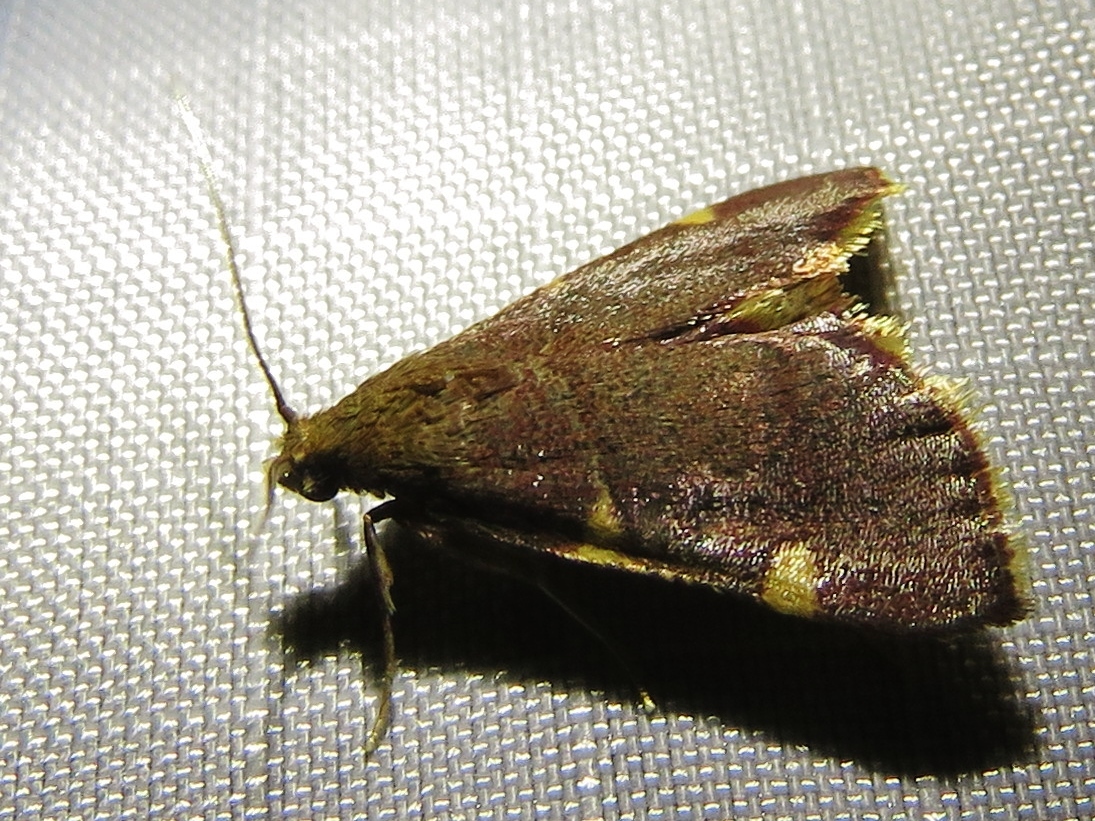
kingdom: Animalia
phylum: Arthropoda
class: Insecta
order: Lepidoptera
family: Pyralidae
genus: Hypsopygia
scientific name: Hypsopygia olinalis
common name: Yellow-fringed dolichomia moth
